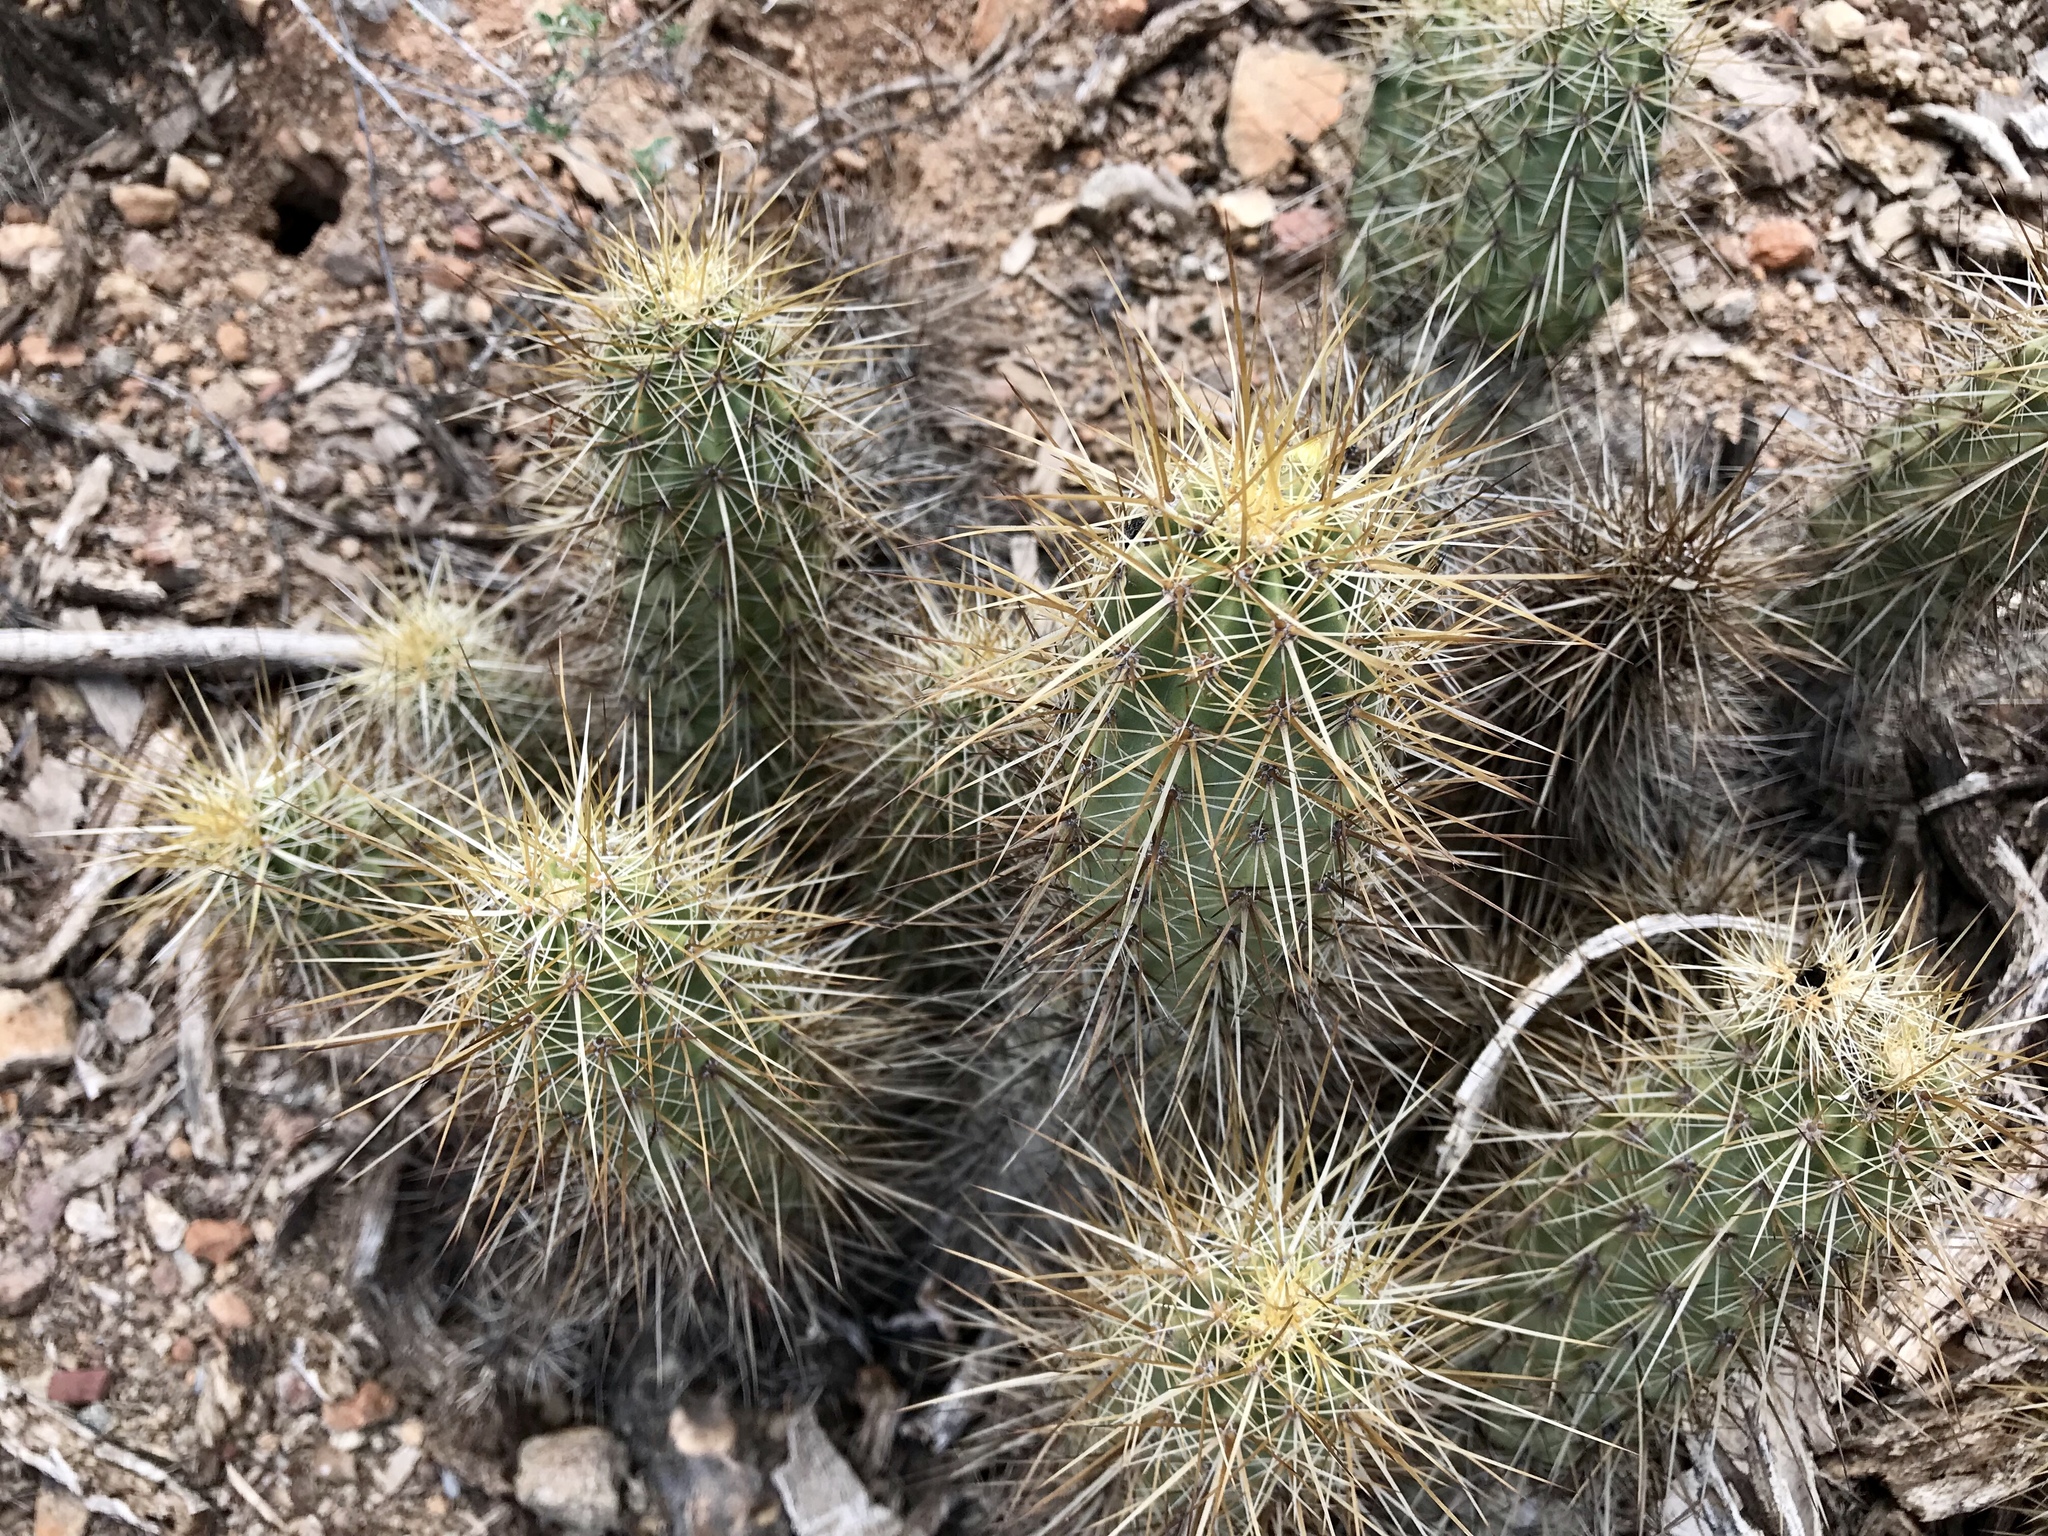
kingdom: Plantae
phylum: Tracheophyta
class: Magnoliopsida
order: Caryophyllales
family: Cactaceae
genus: Echinocereus
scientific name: Echinocereus nicholii
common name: Nichol's hedgehog cactus
